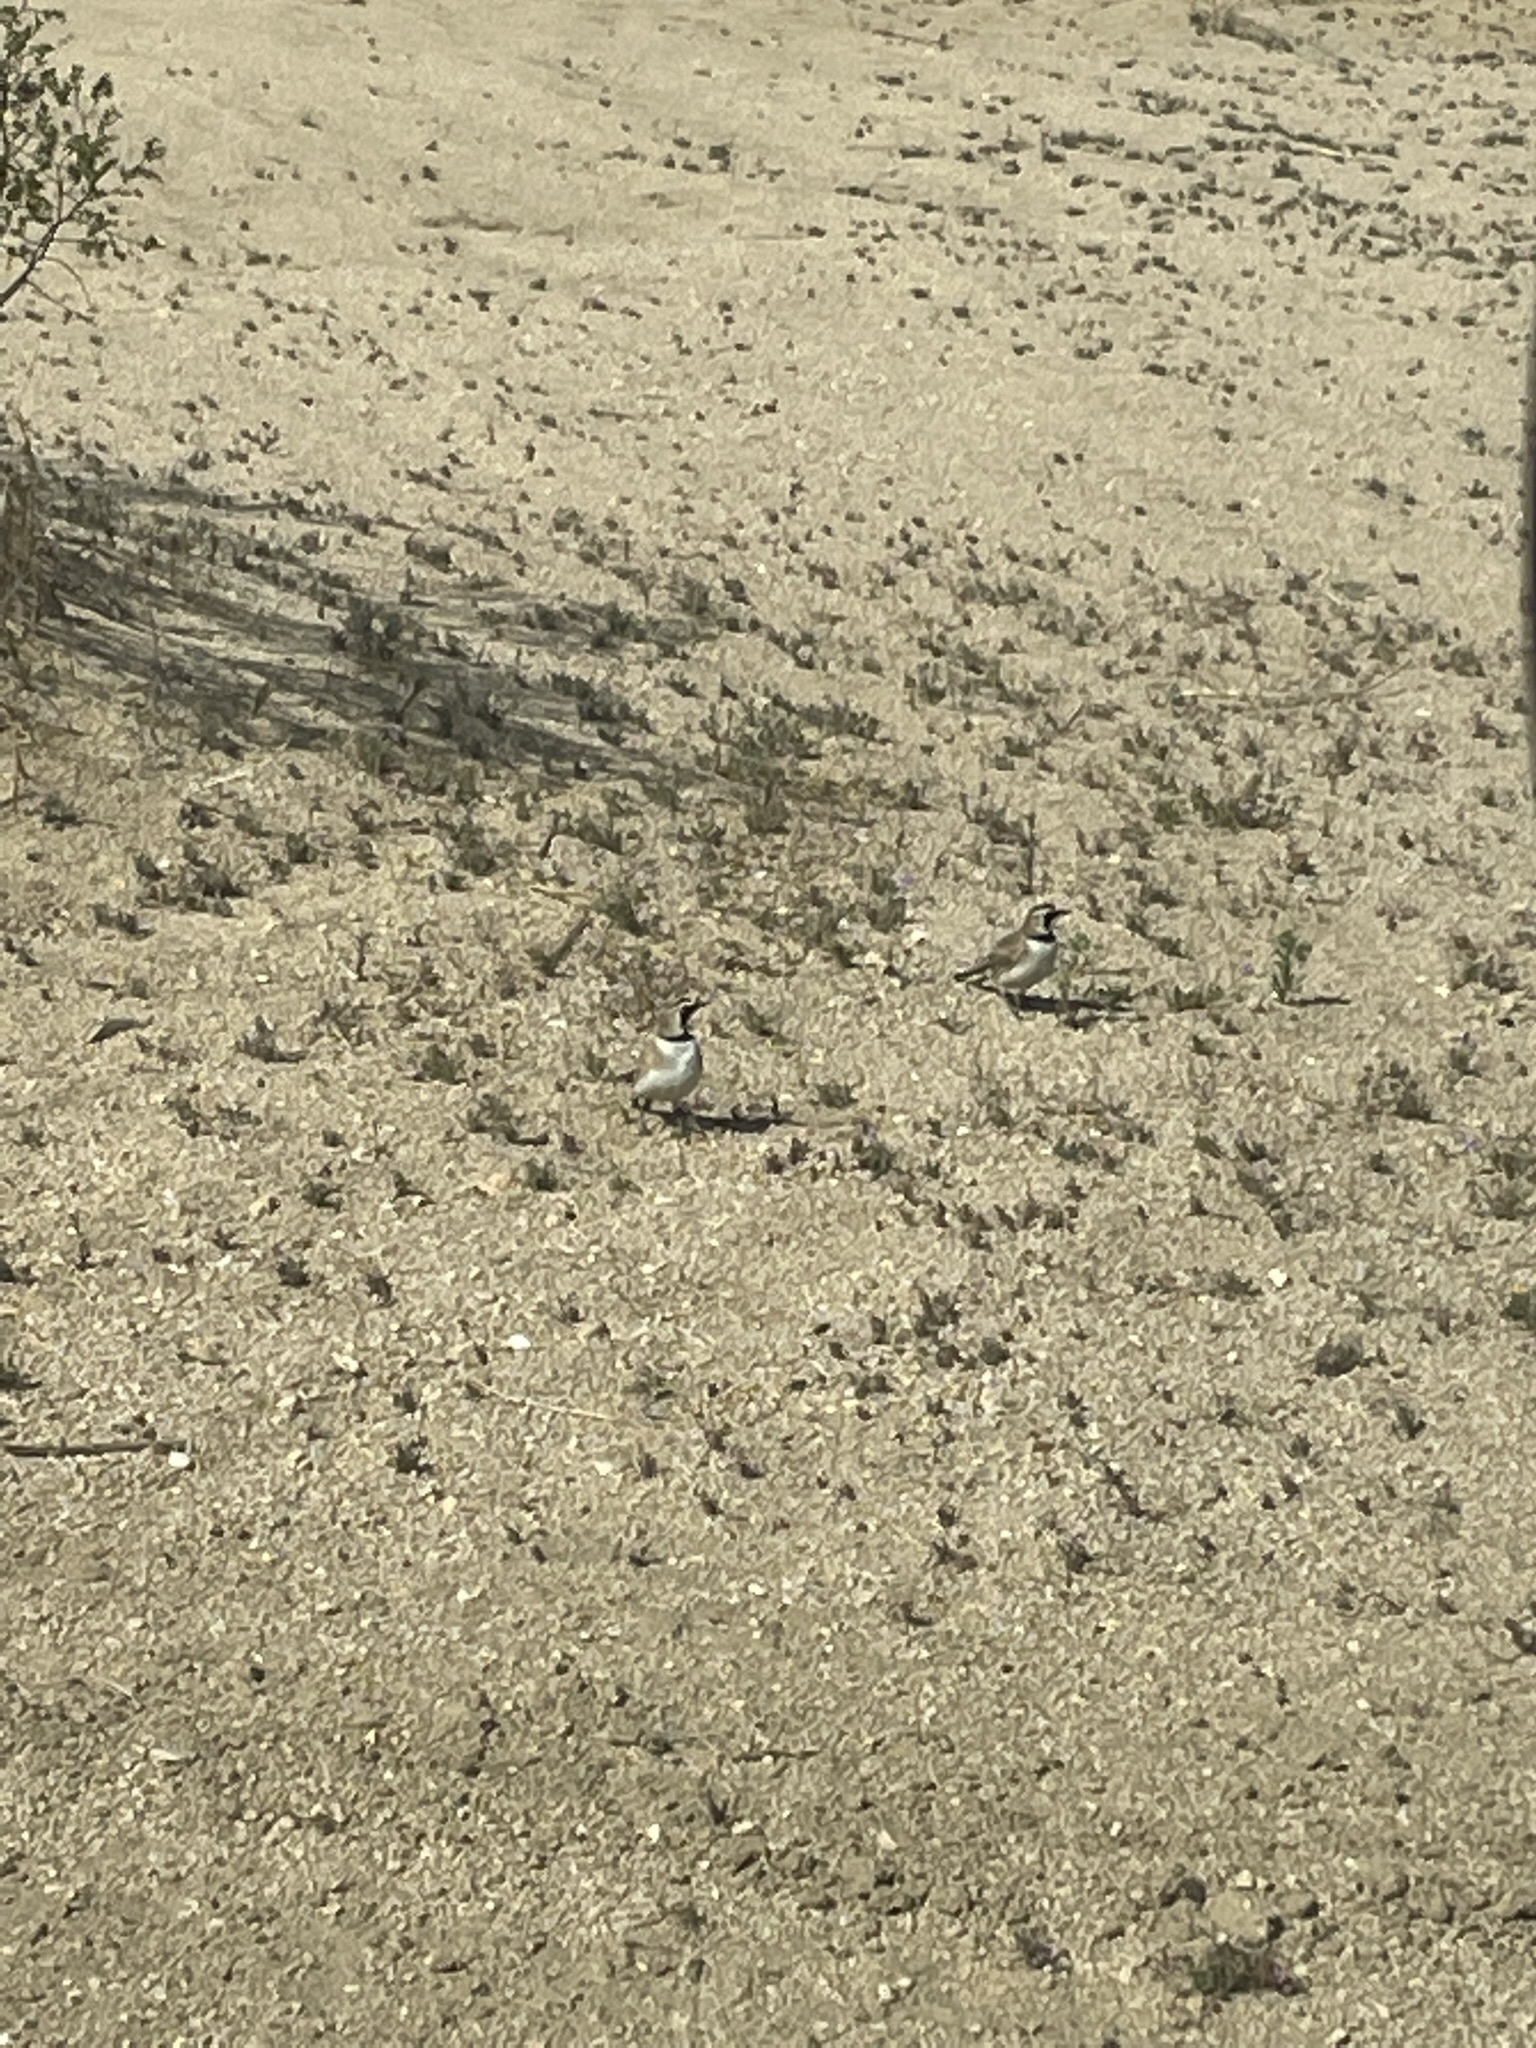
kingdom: Animalia
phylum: Chordata
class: Aves
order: Passeriformes
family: Alaudidae
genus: Eremophila
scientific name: Eremophila alpestris
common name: Horned lark
